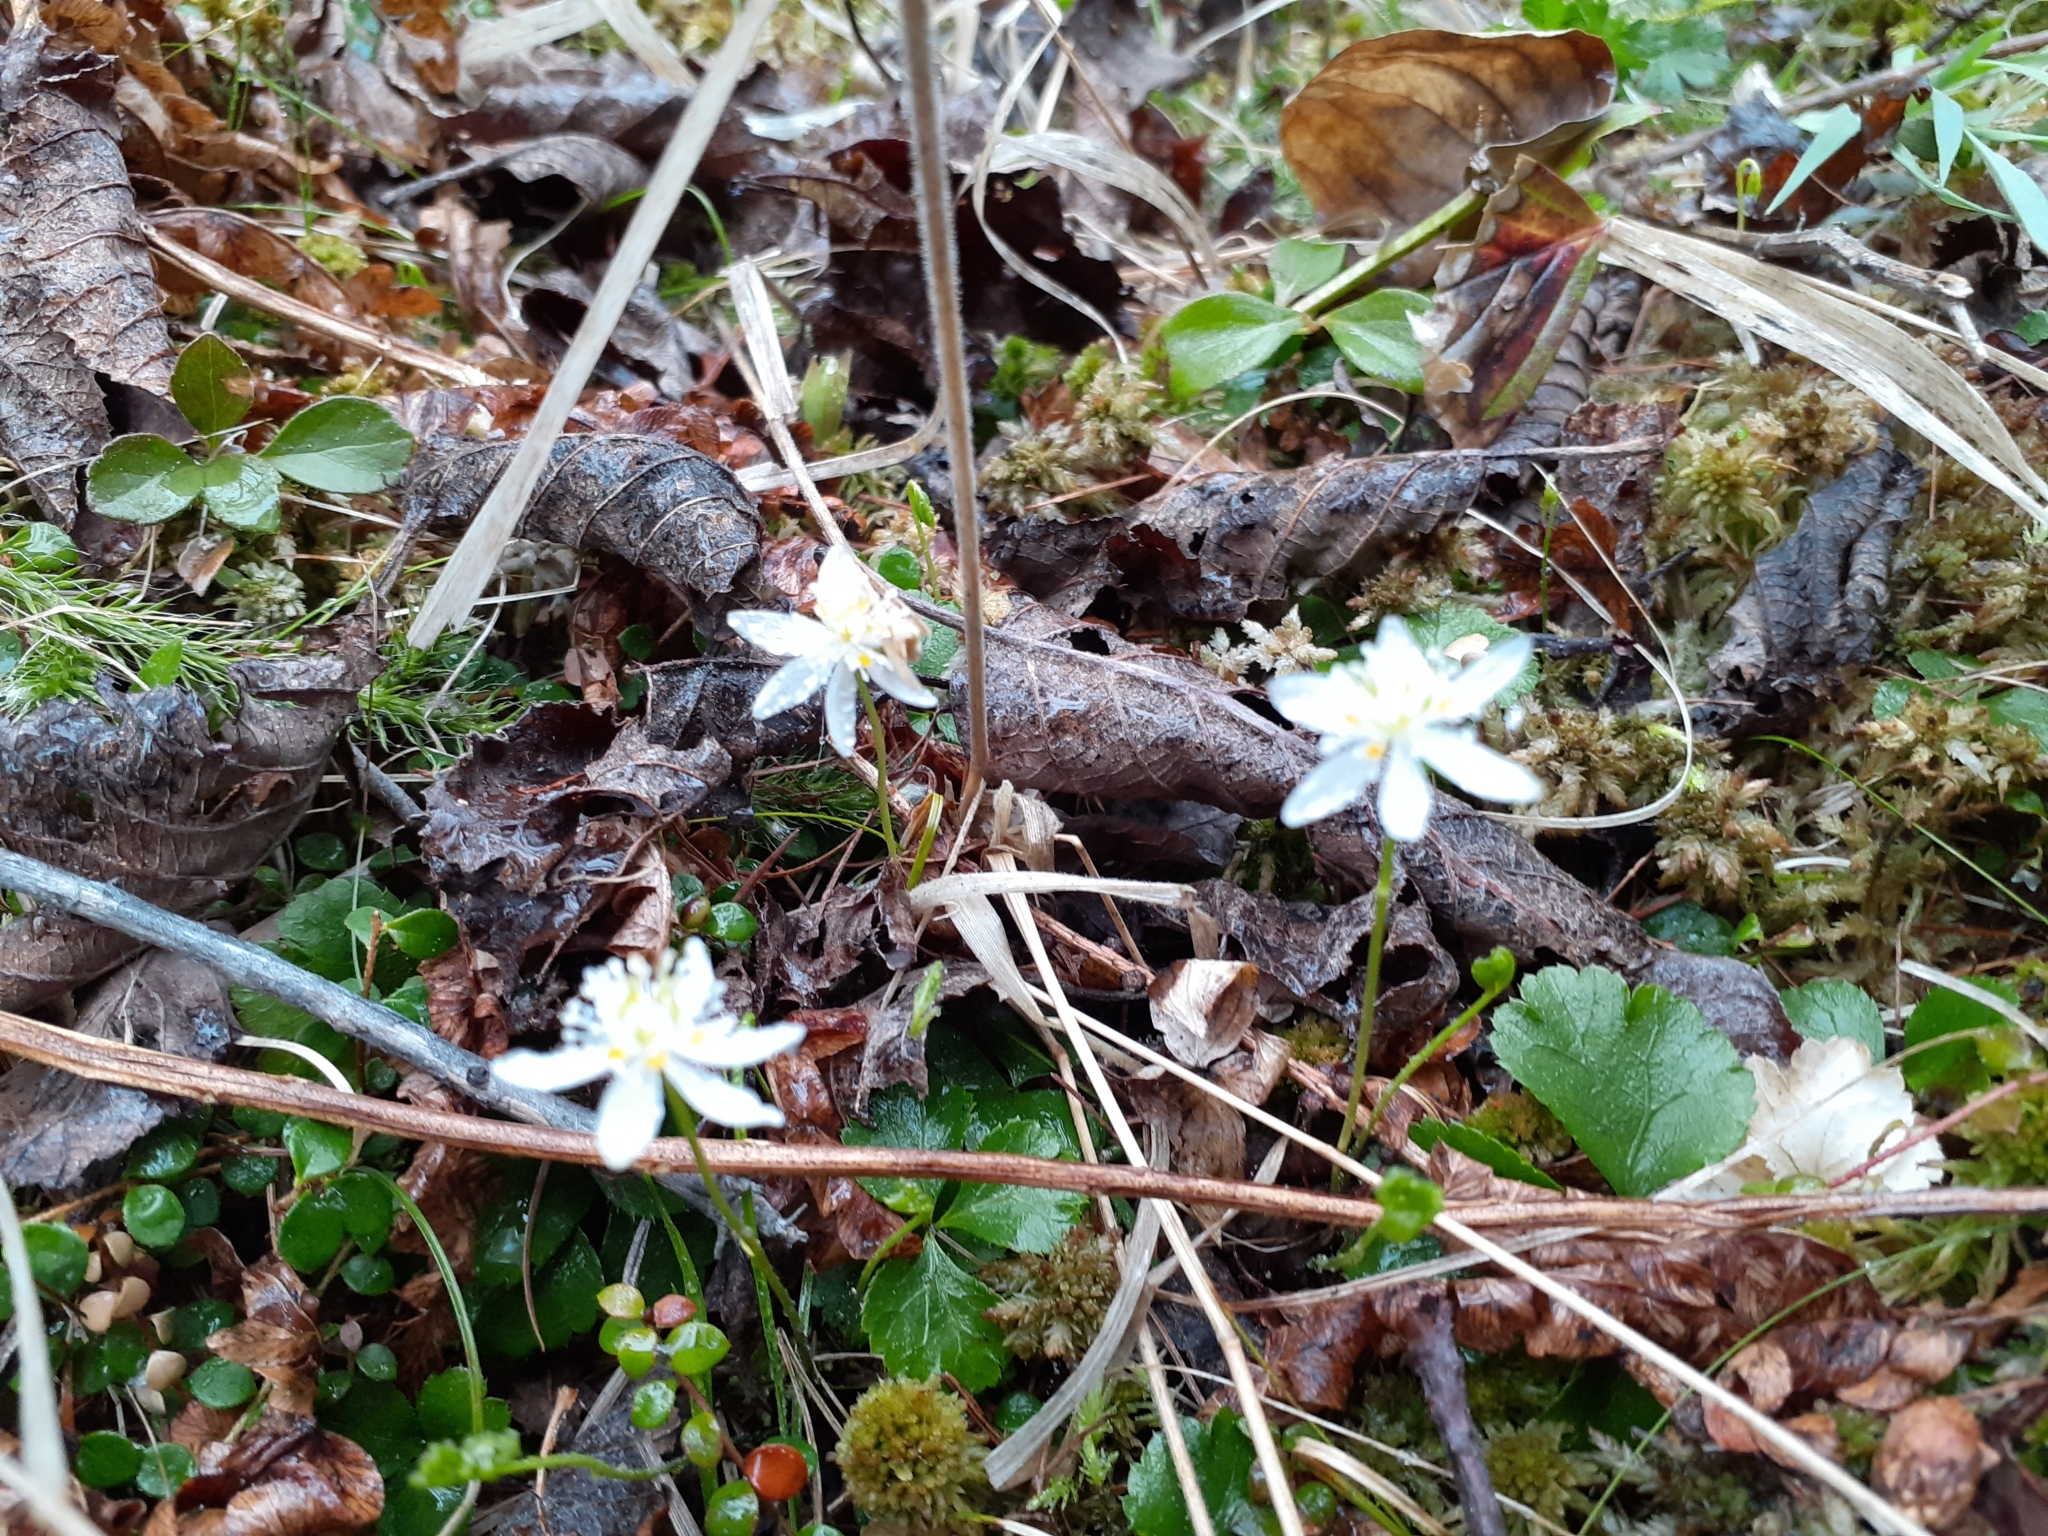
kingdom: Plantae
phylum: Tracheophyta
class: Magnoliopsida
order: Ranunculales
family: Ranunculaceae
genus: Coptis
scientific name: Coptis trifolia
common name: Canker-root
